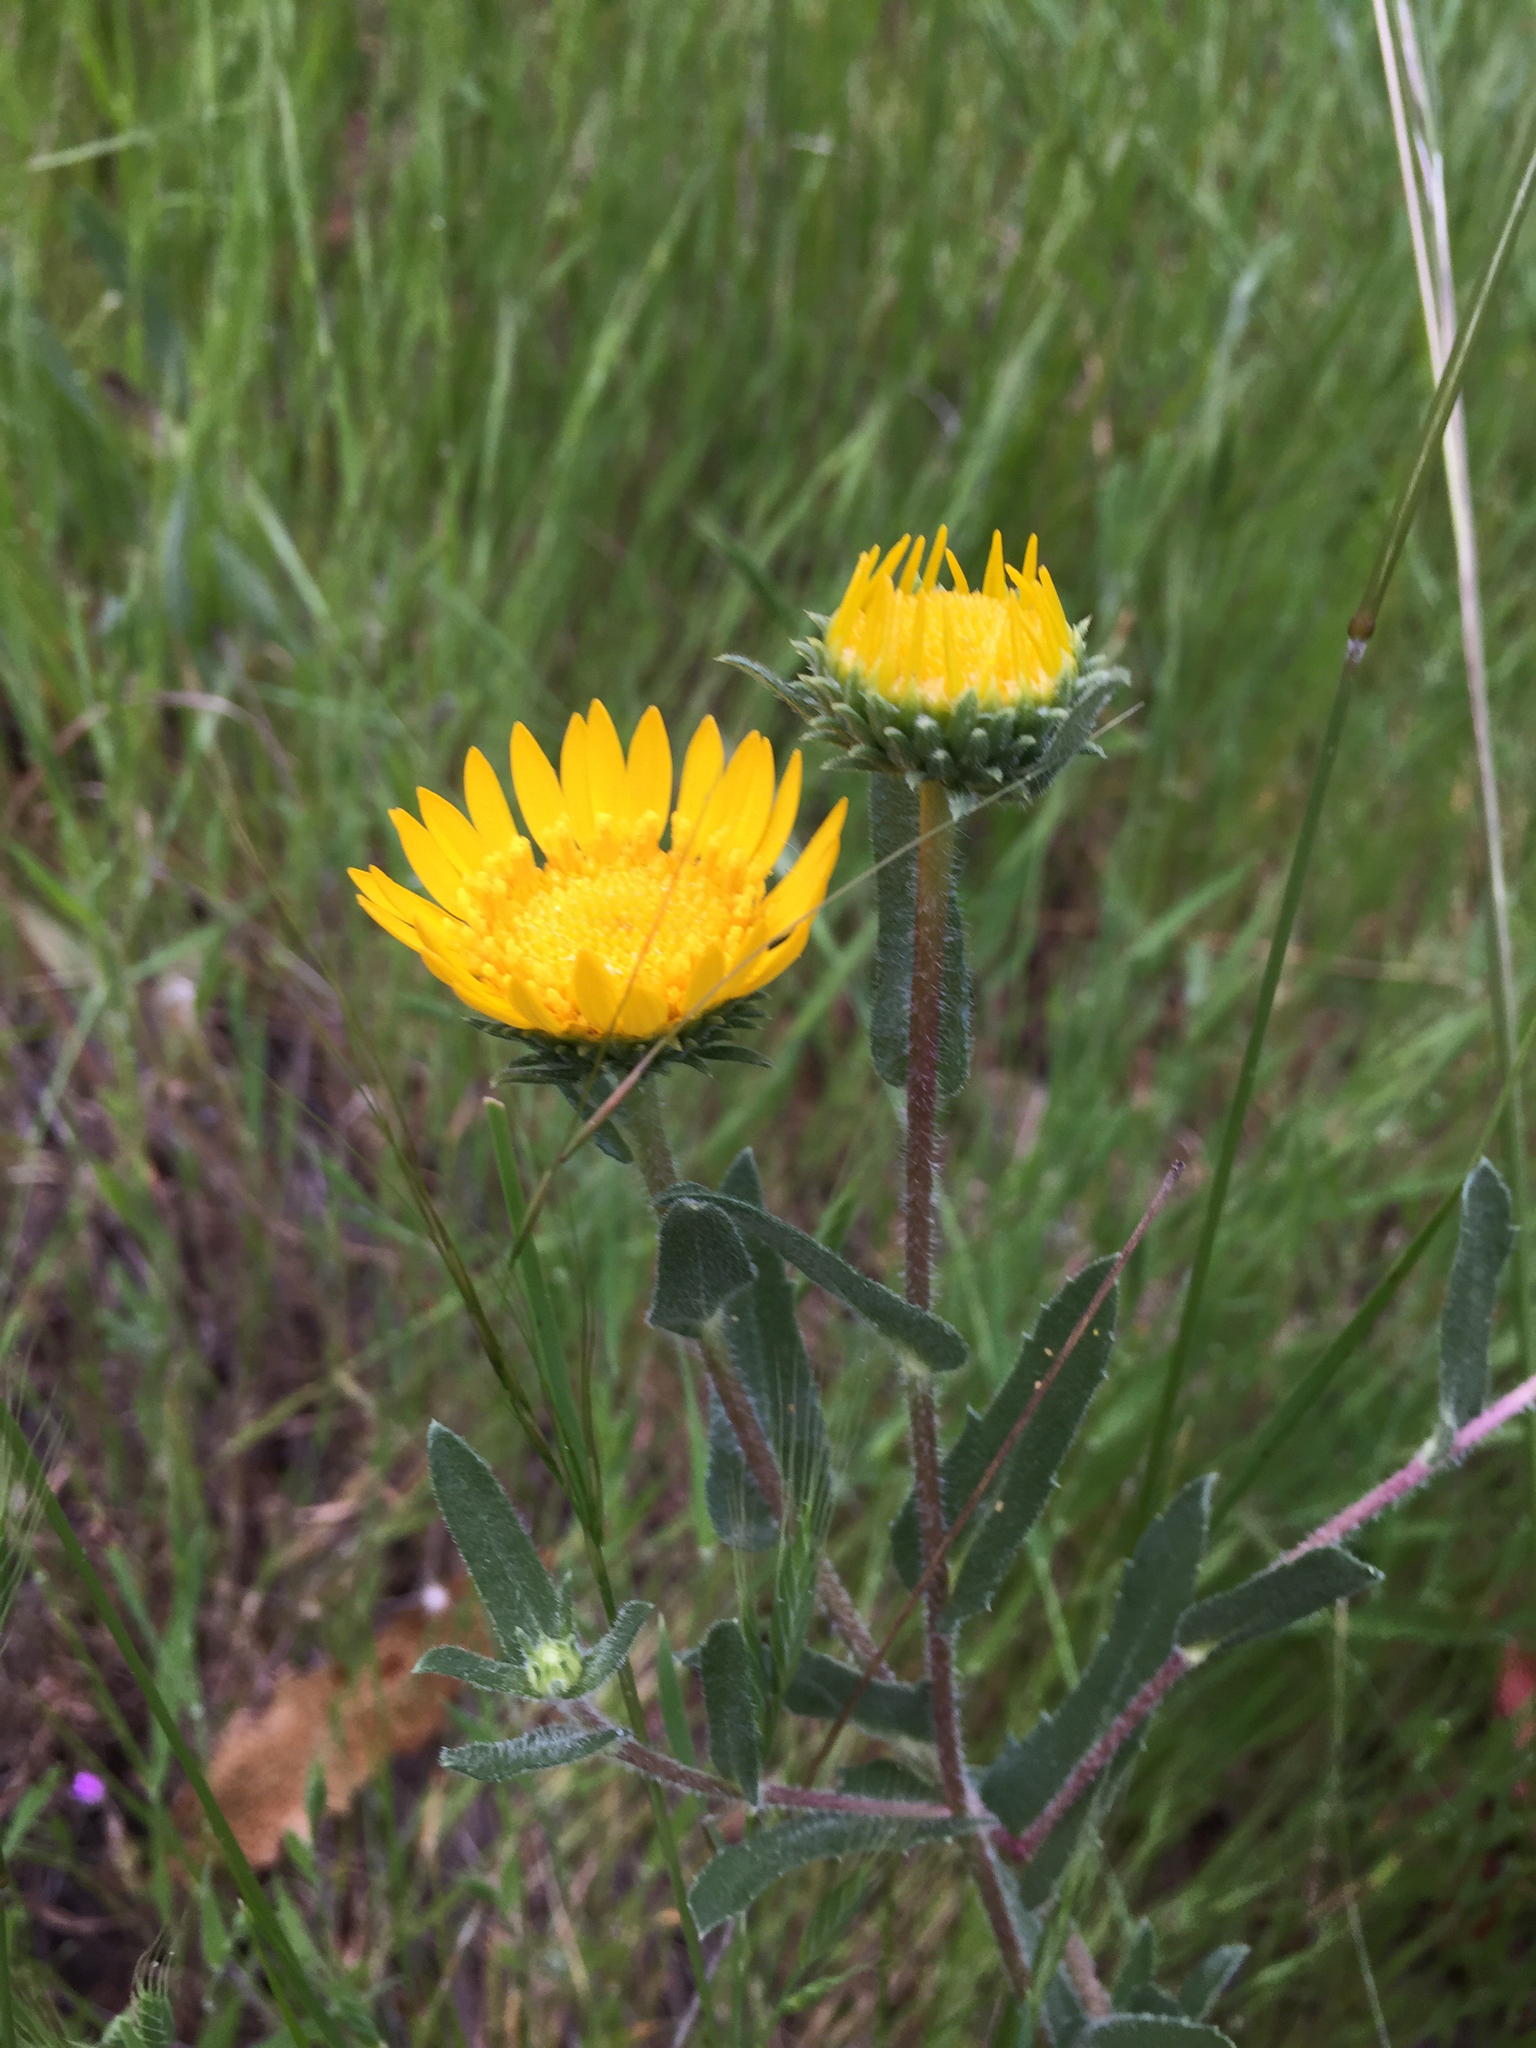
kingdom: Plantae
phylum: Tracheophyta
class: Magnoliopsida
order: Asterales
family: Asteraceae
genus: Grindelia
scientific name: Grindelia hirsutula
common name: Hairy gumweed
